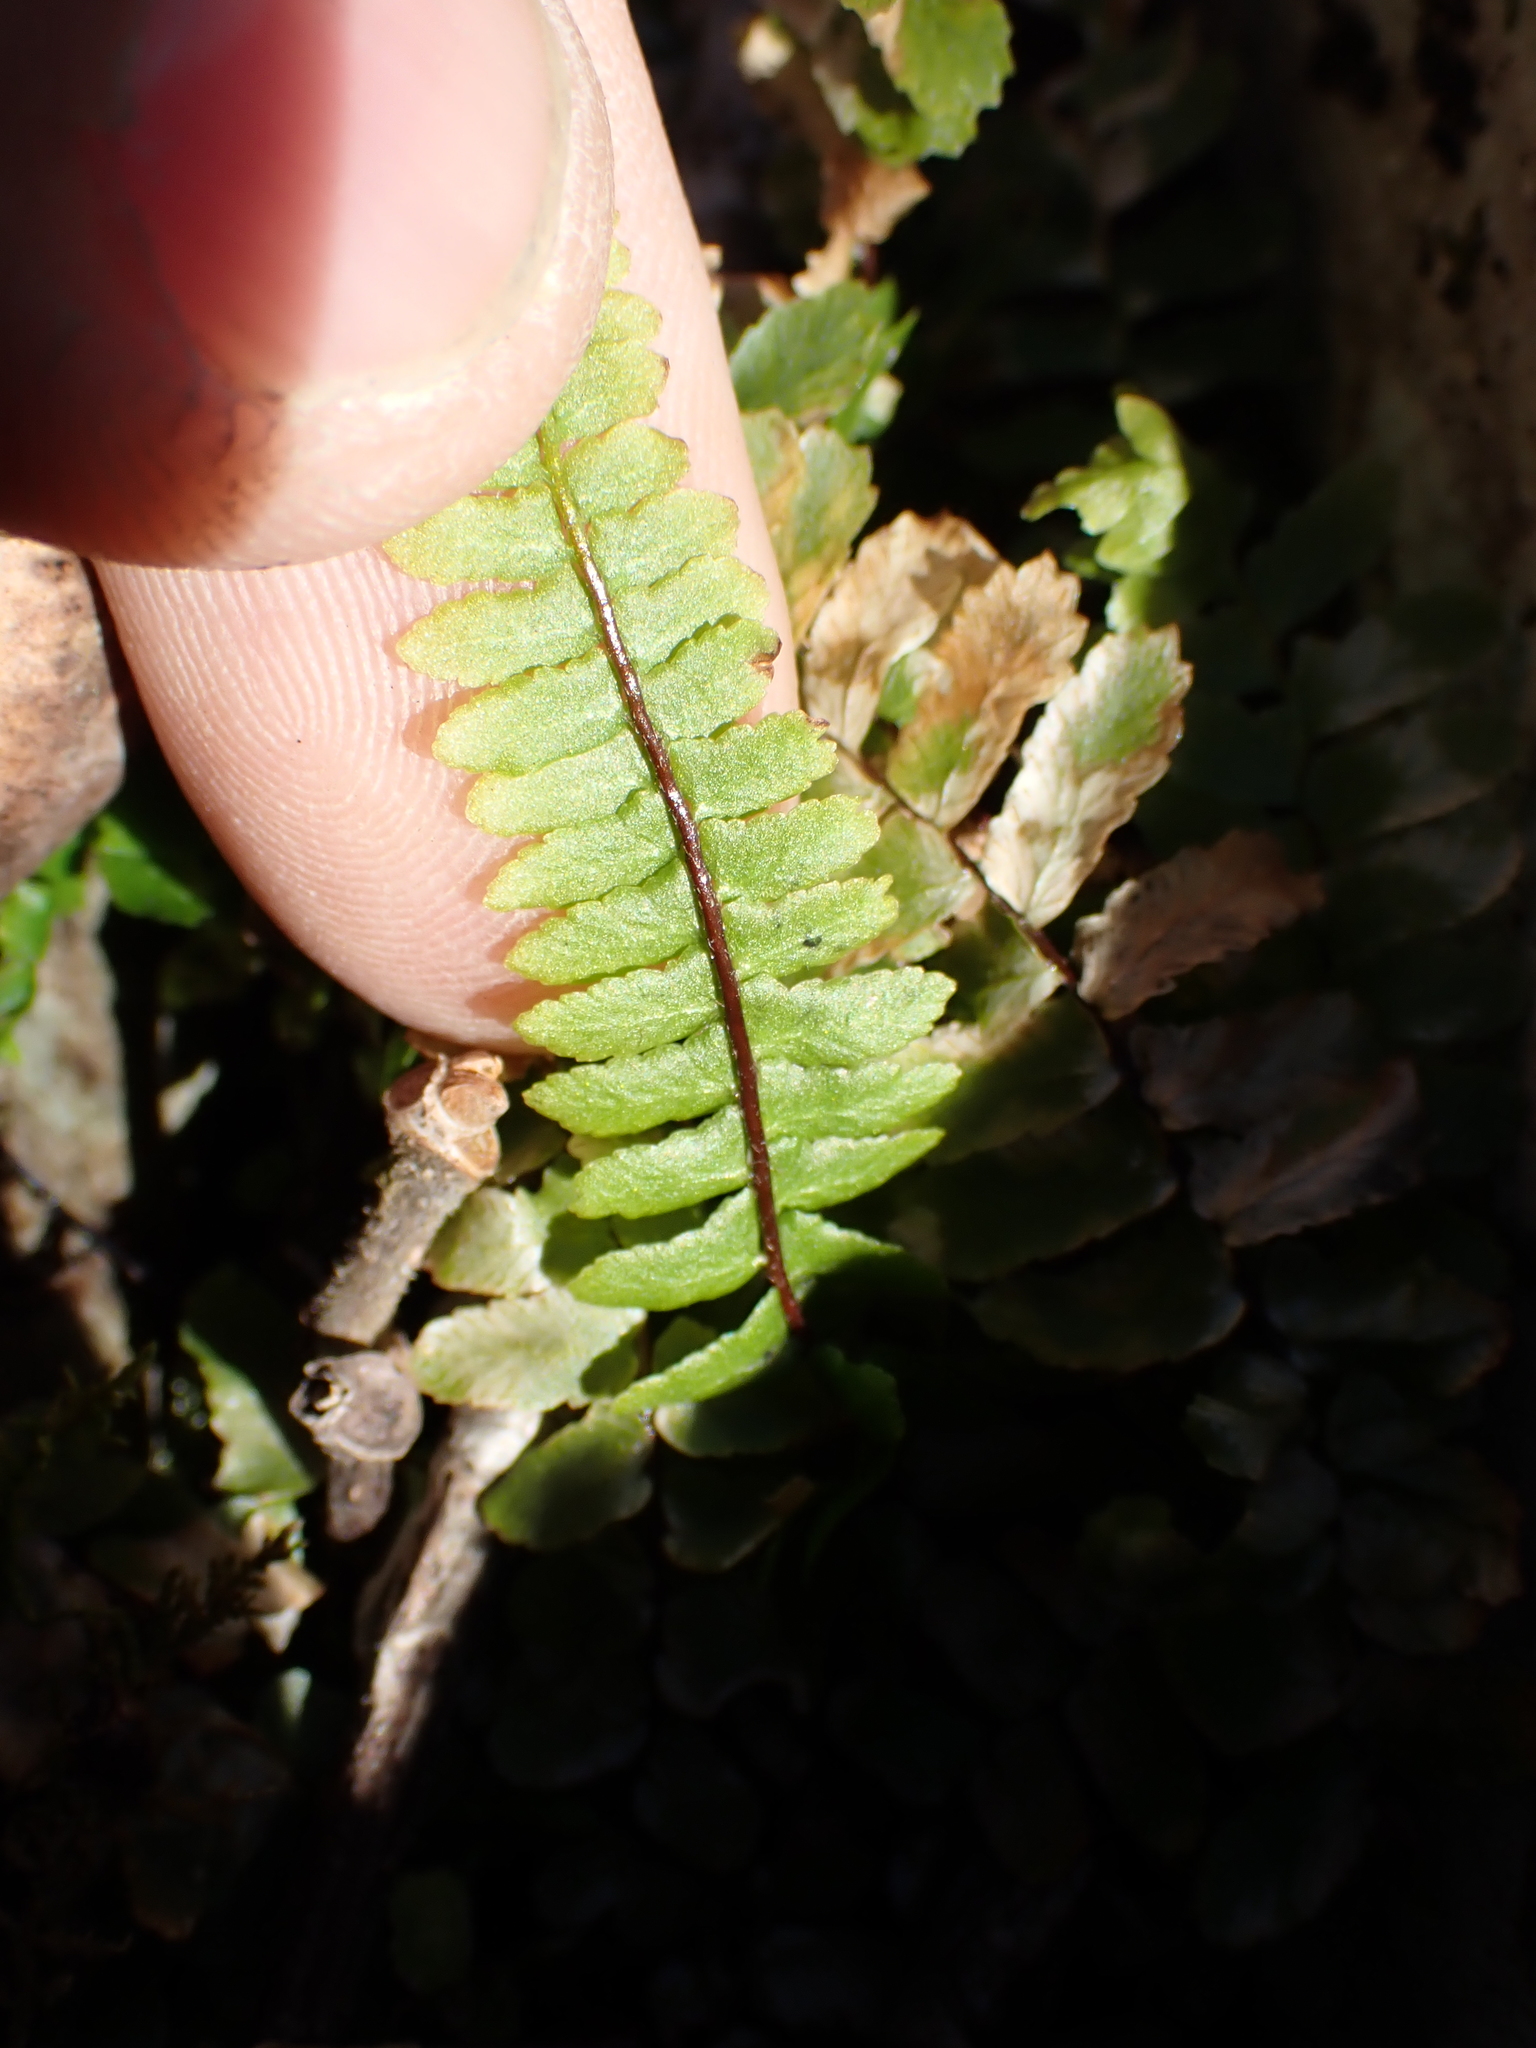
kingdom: Plantae
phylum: Tracheophyta
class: Polypodiopsida
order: Polypodiales
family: Aspleniaceae
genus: Asplenium
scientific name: Asplenium platyneuron
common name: Ebony spleenwort
